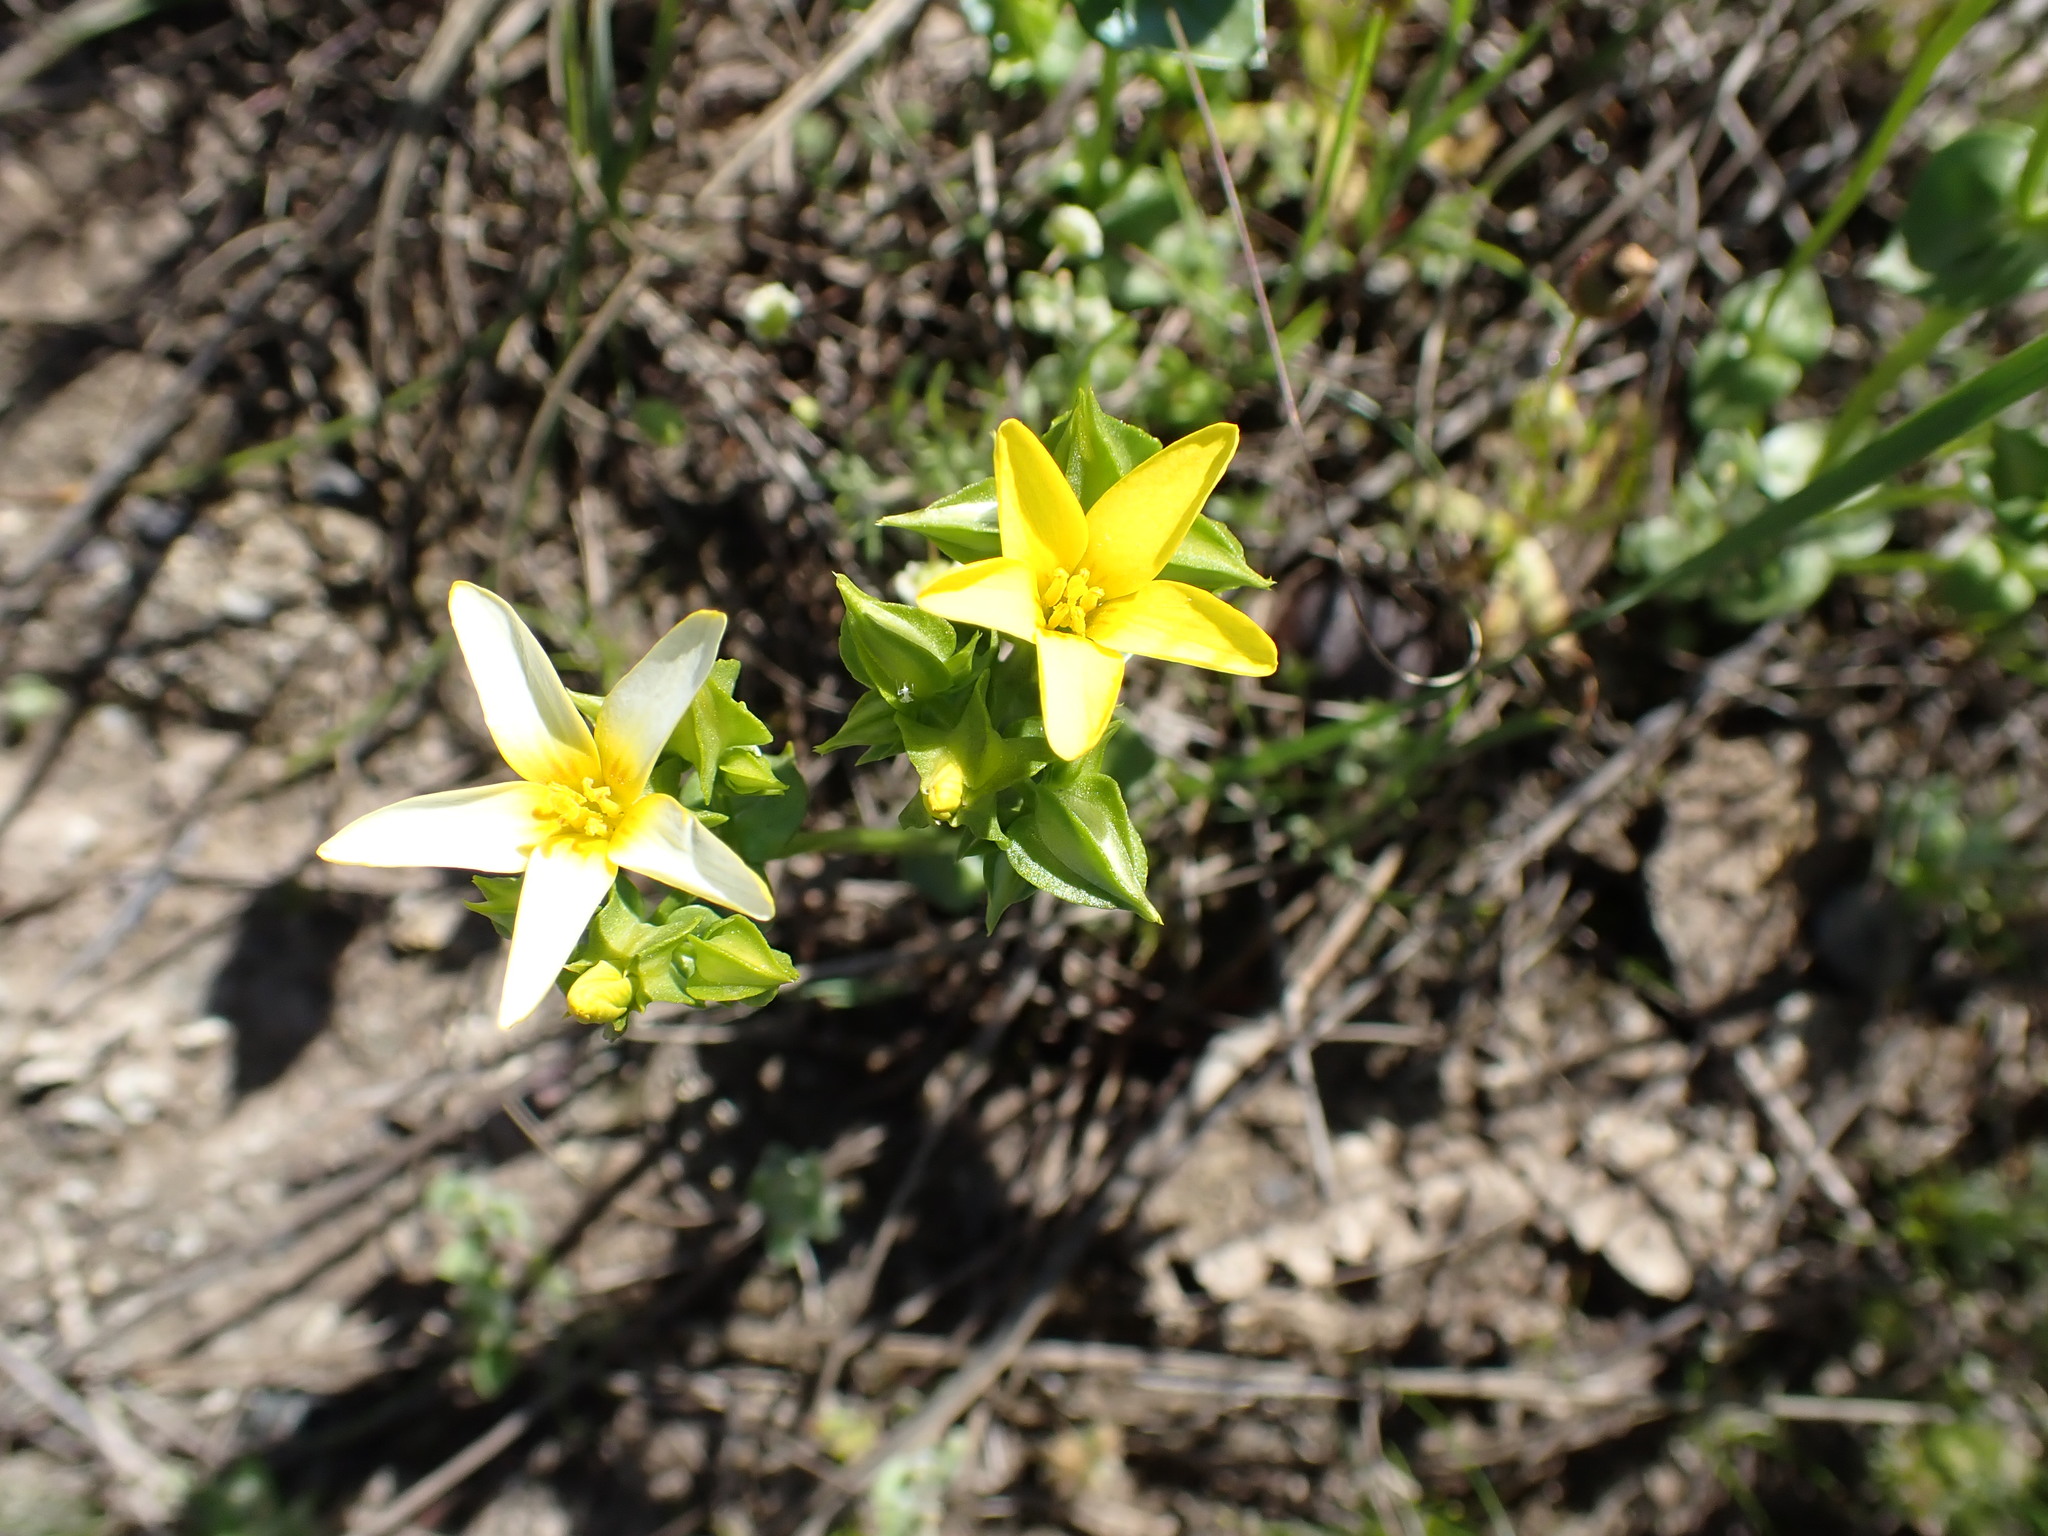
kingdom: Plantae
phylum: Tracheophyta
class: Magnoliopsida
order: Gentianales
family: Gentianaceae
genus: Sebaea
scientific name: Sebaea scabra
